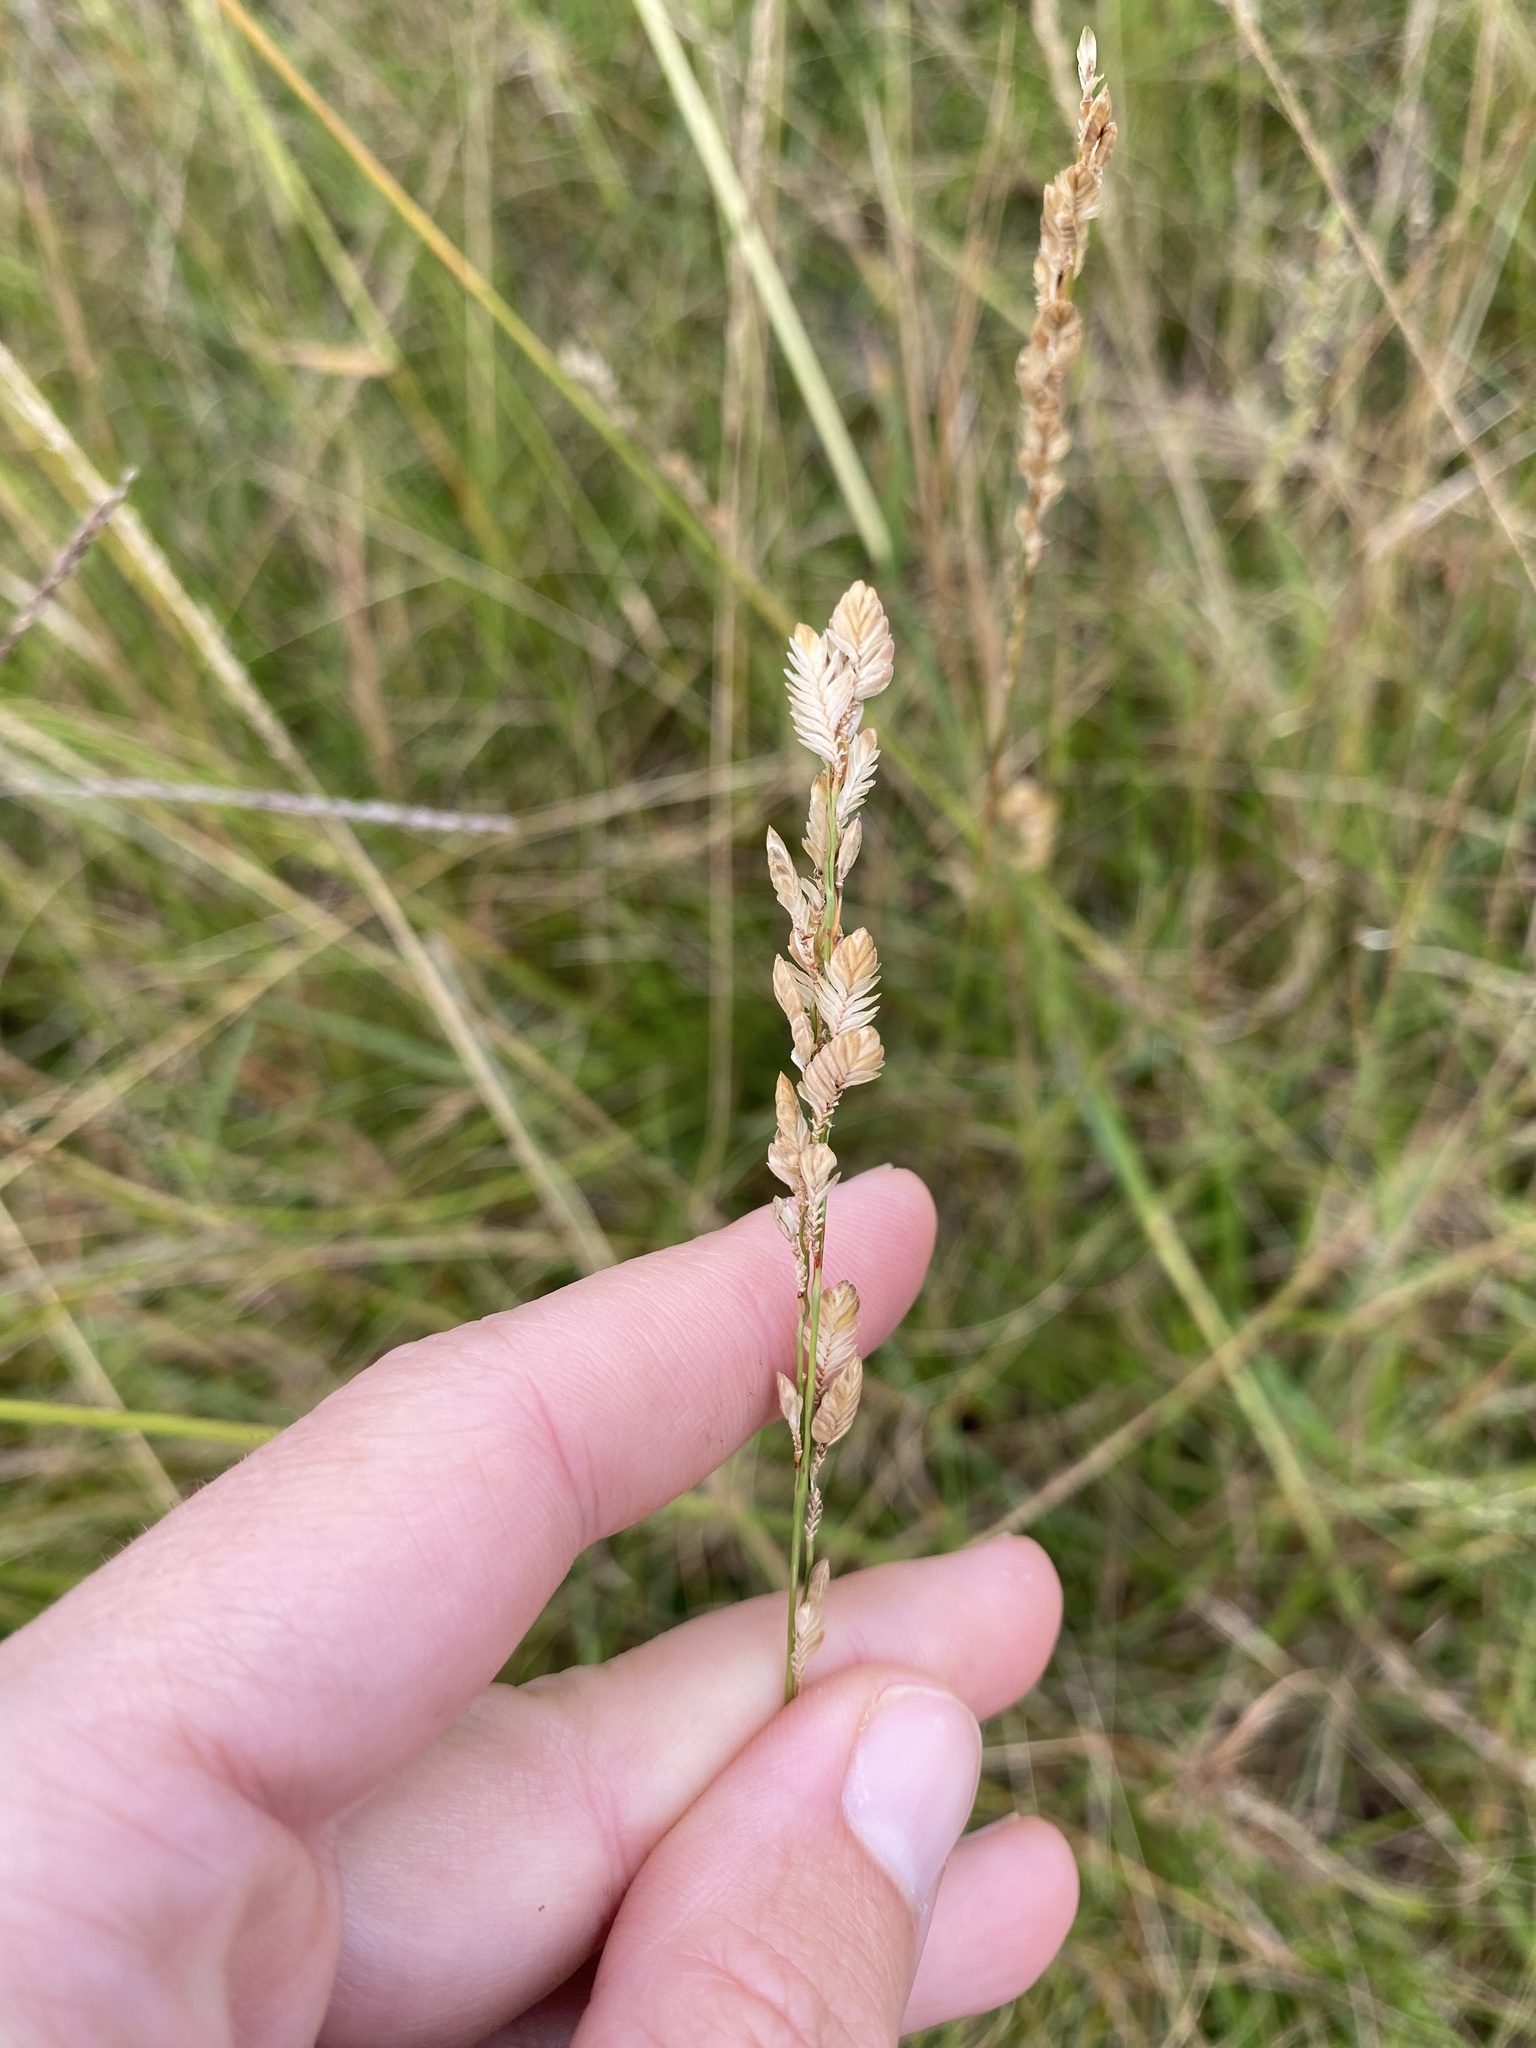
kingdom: Plantae
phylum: Tracheophyta
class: Liliopsida
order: Poales
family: Poaceae
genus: Eragrostis
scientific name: Eragrostis superba
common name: Wilman lovegrass
